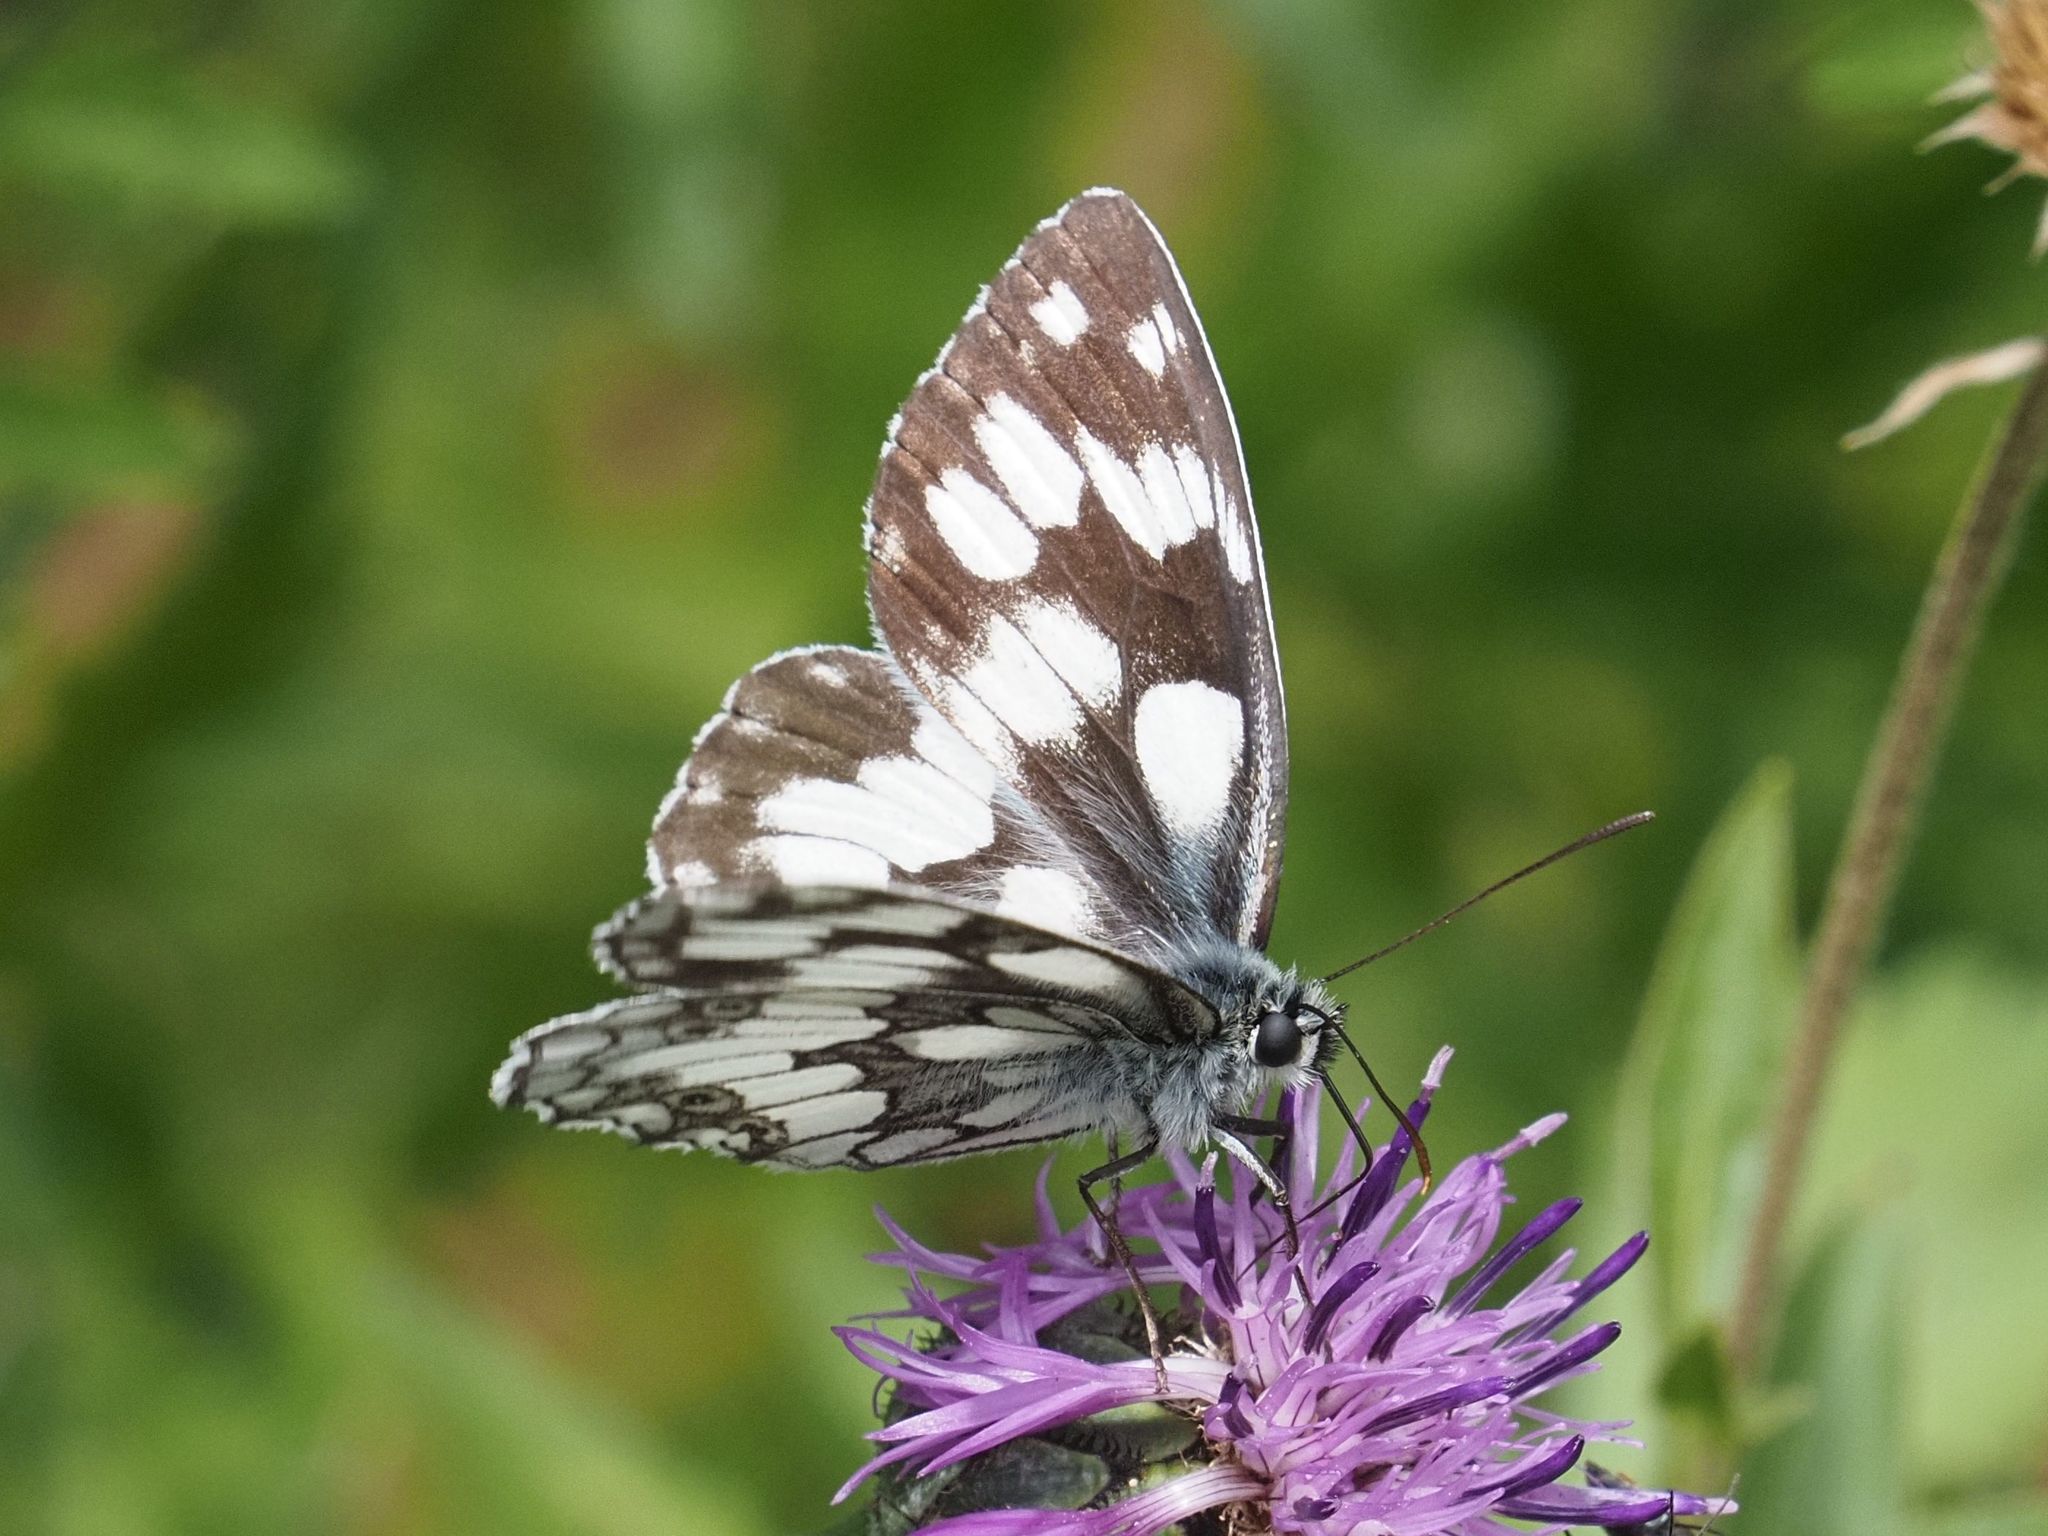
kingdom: Animalia
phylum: Arthropoda
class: Insecta
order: Lepidoptera
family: Nymphalidae
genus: Melanargia
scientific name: Melanargia galathea
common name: Marbled white
